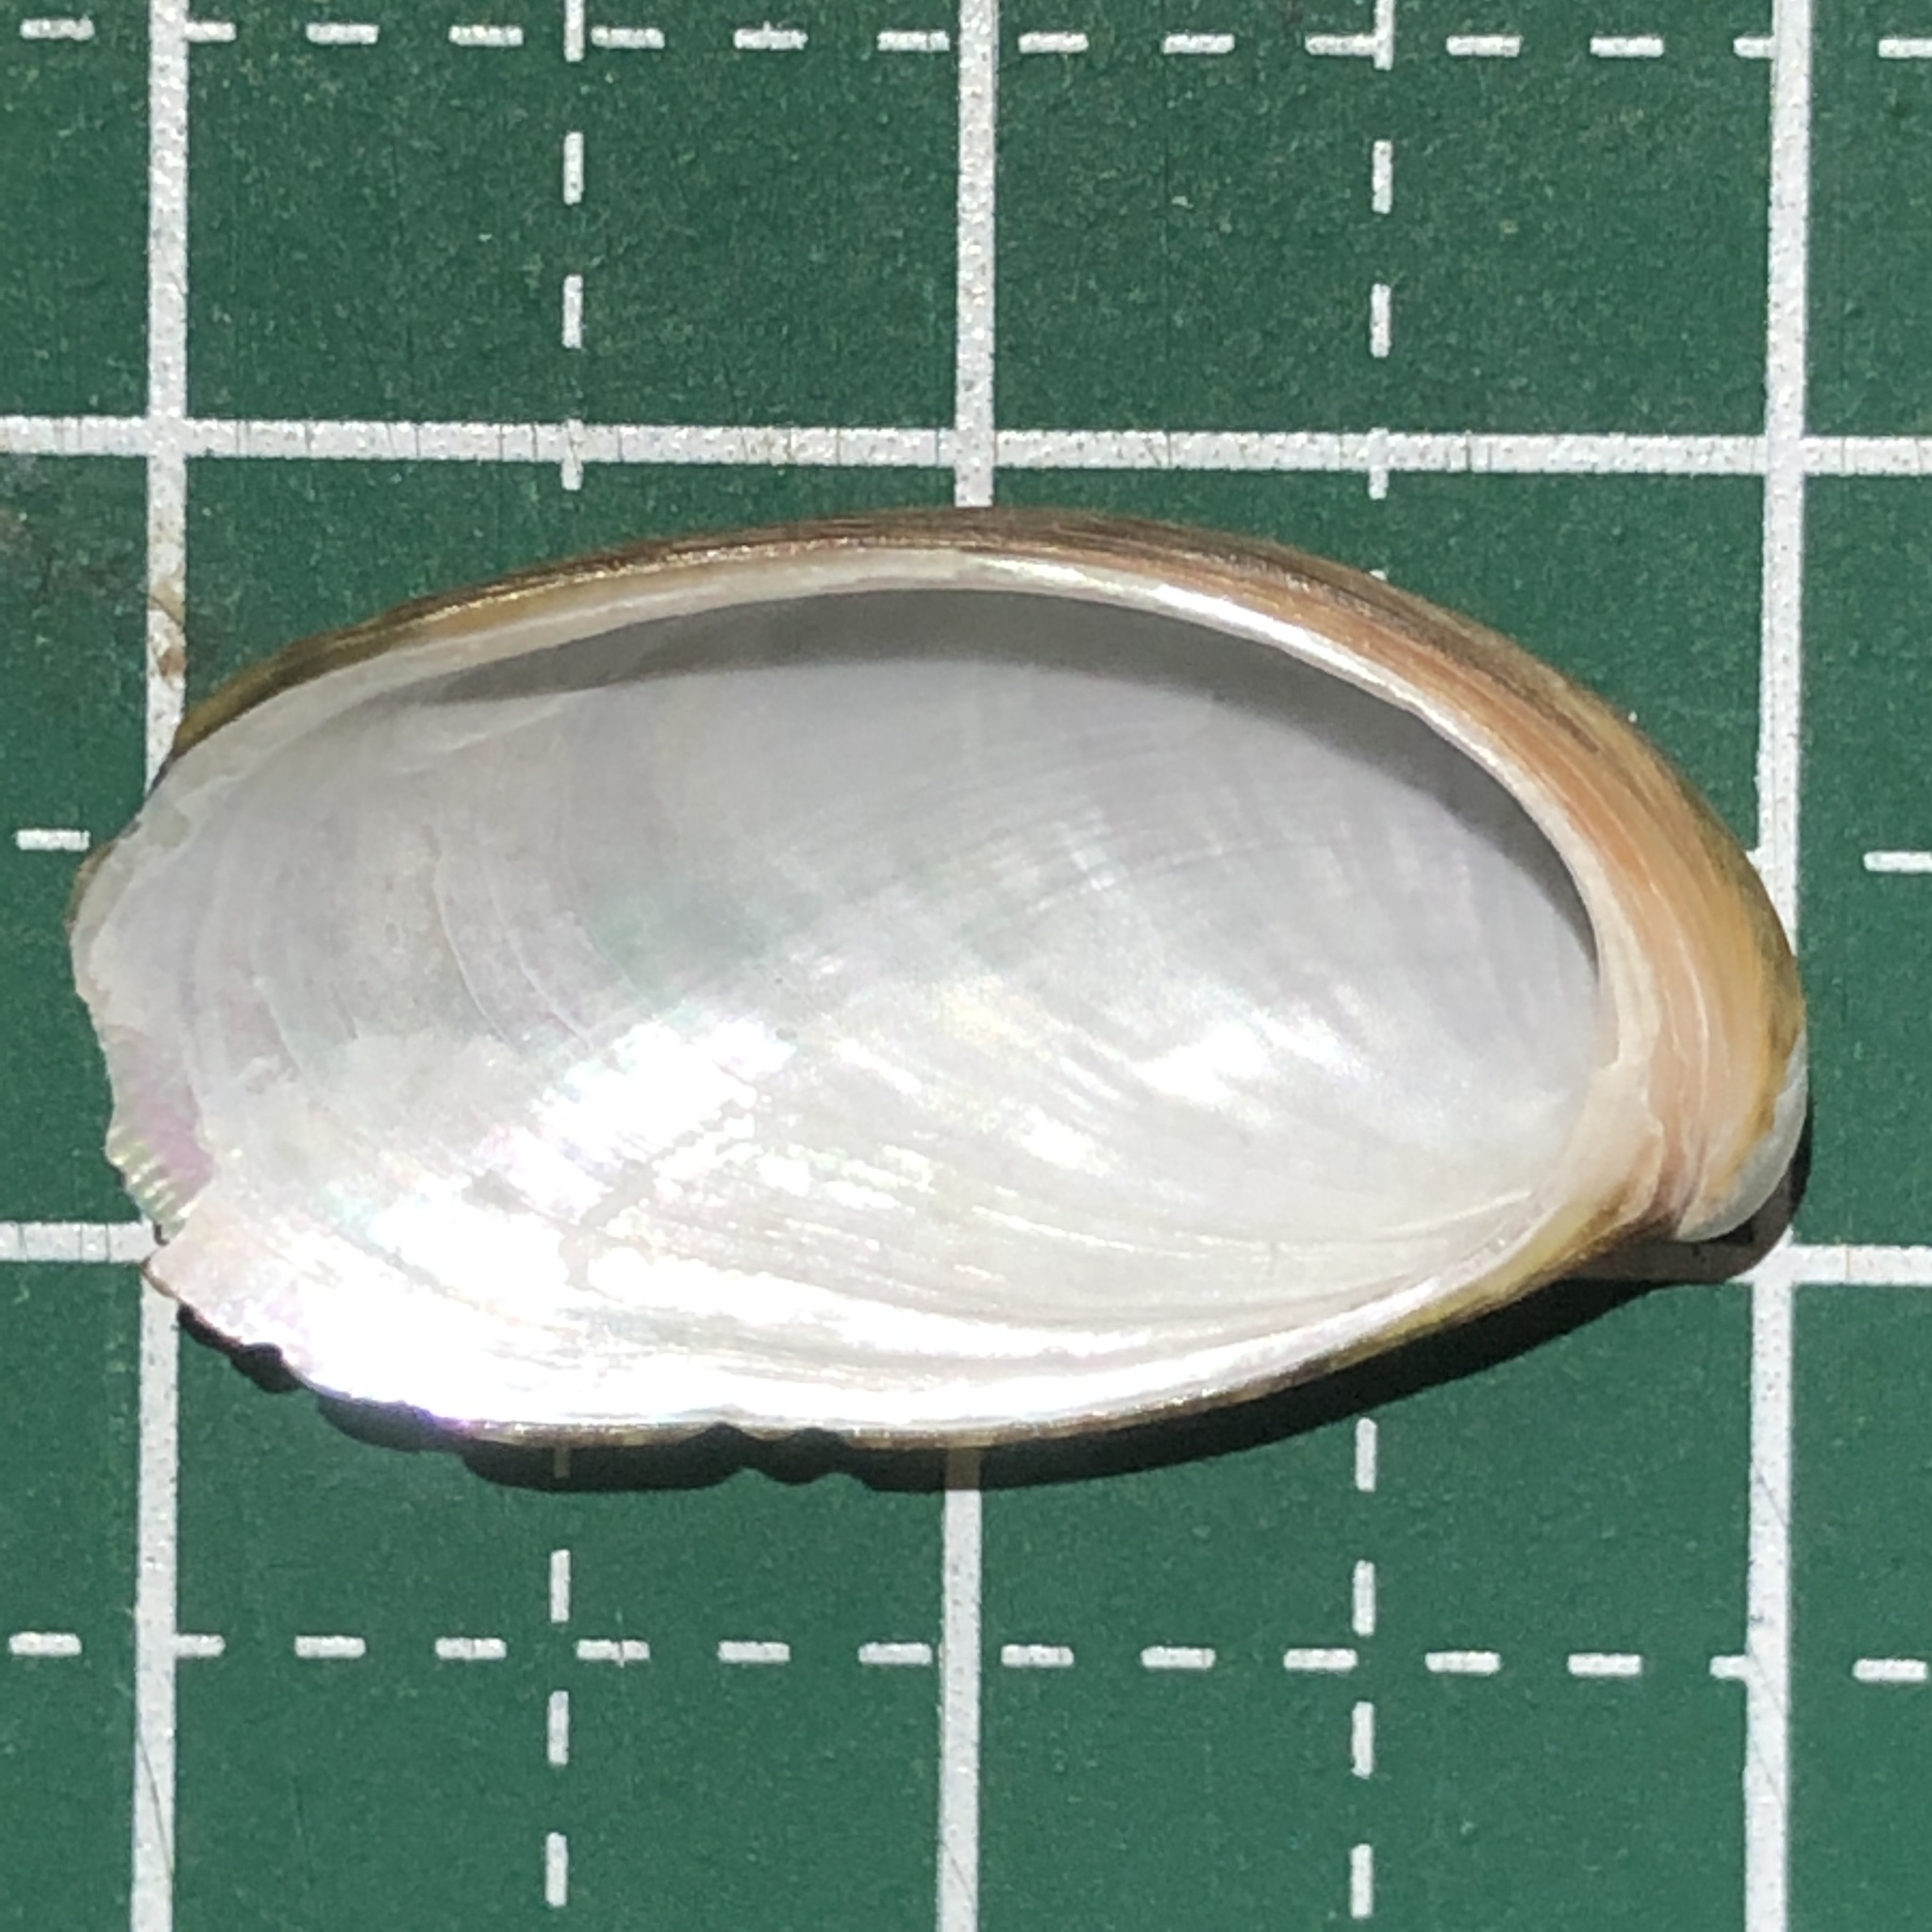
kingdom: Animalia
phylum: Mollusca
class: Gastropoda
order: Trochida
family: Trochidae
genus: Stomatella
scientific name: Stomatella planulata
